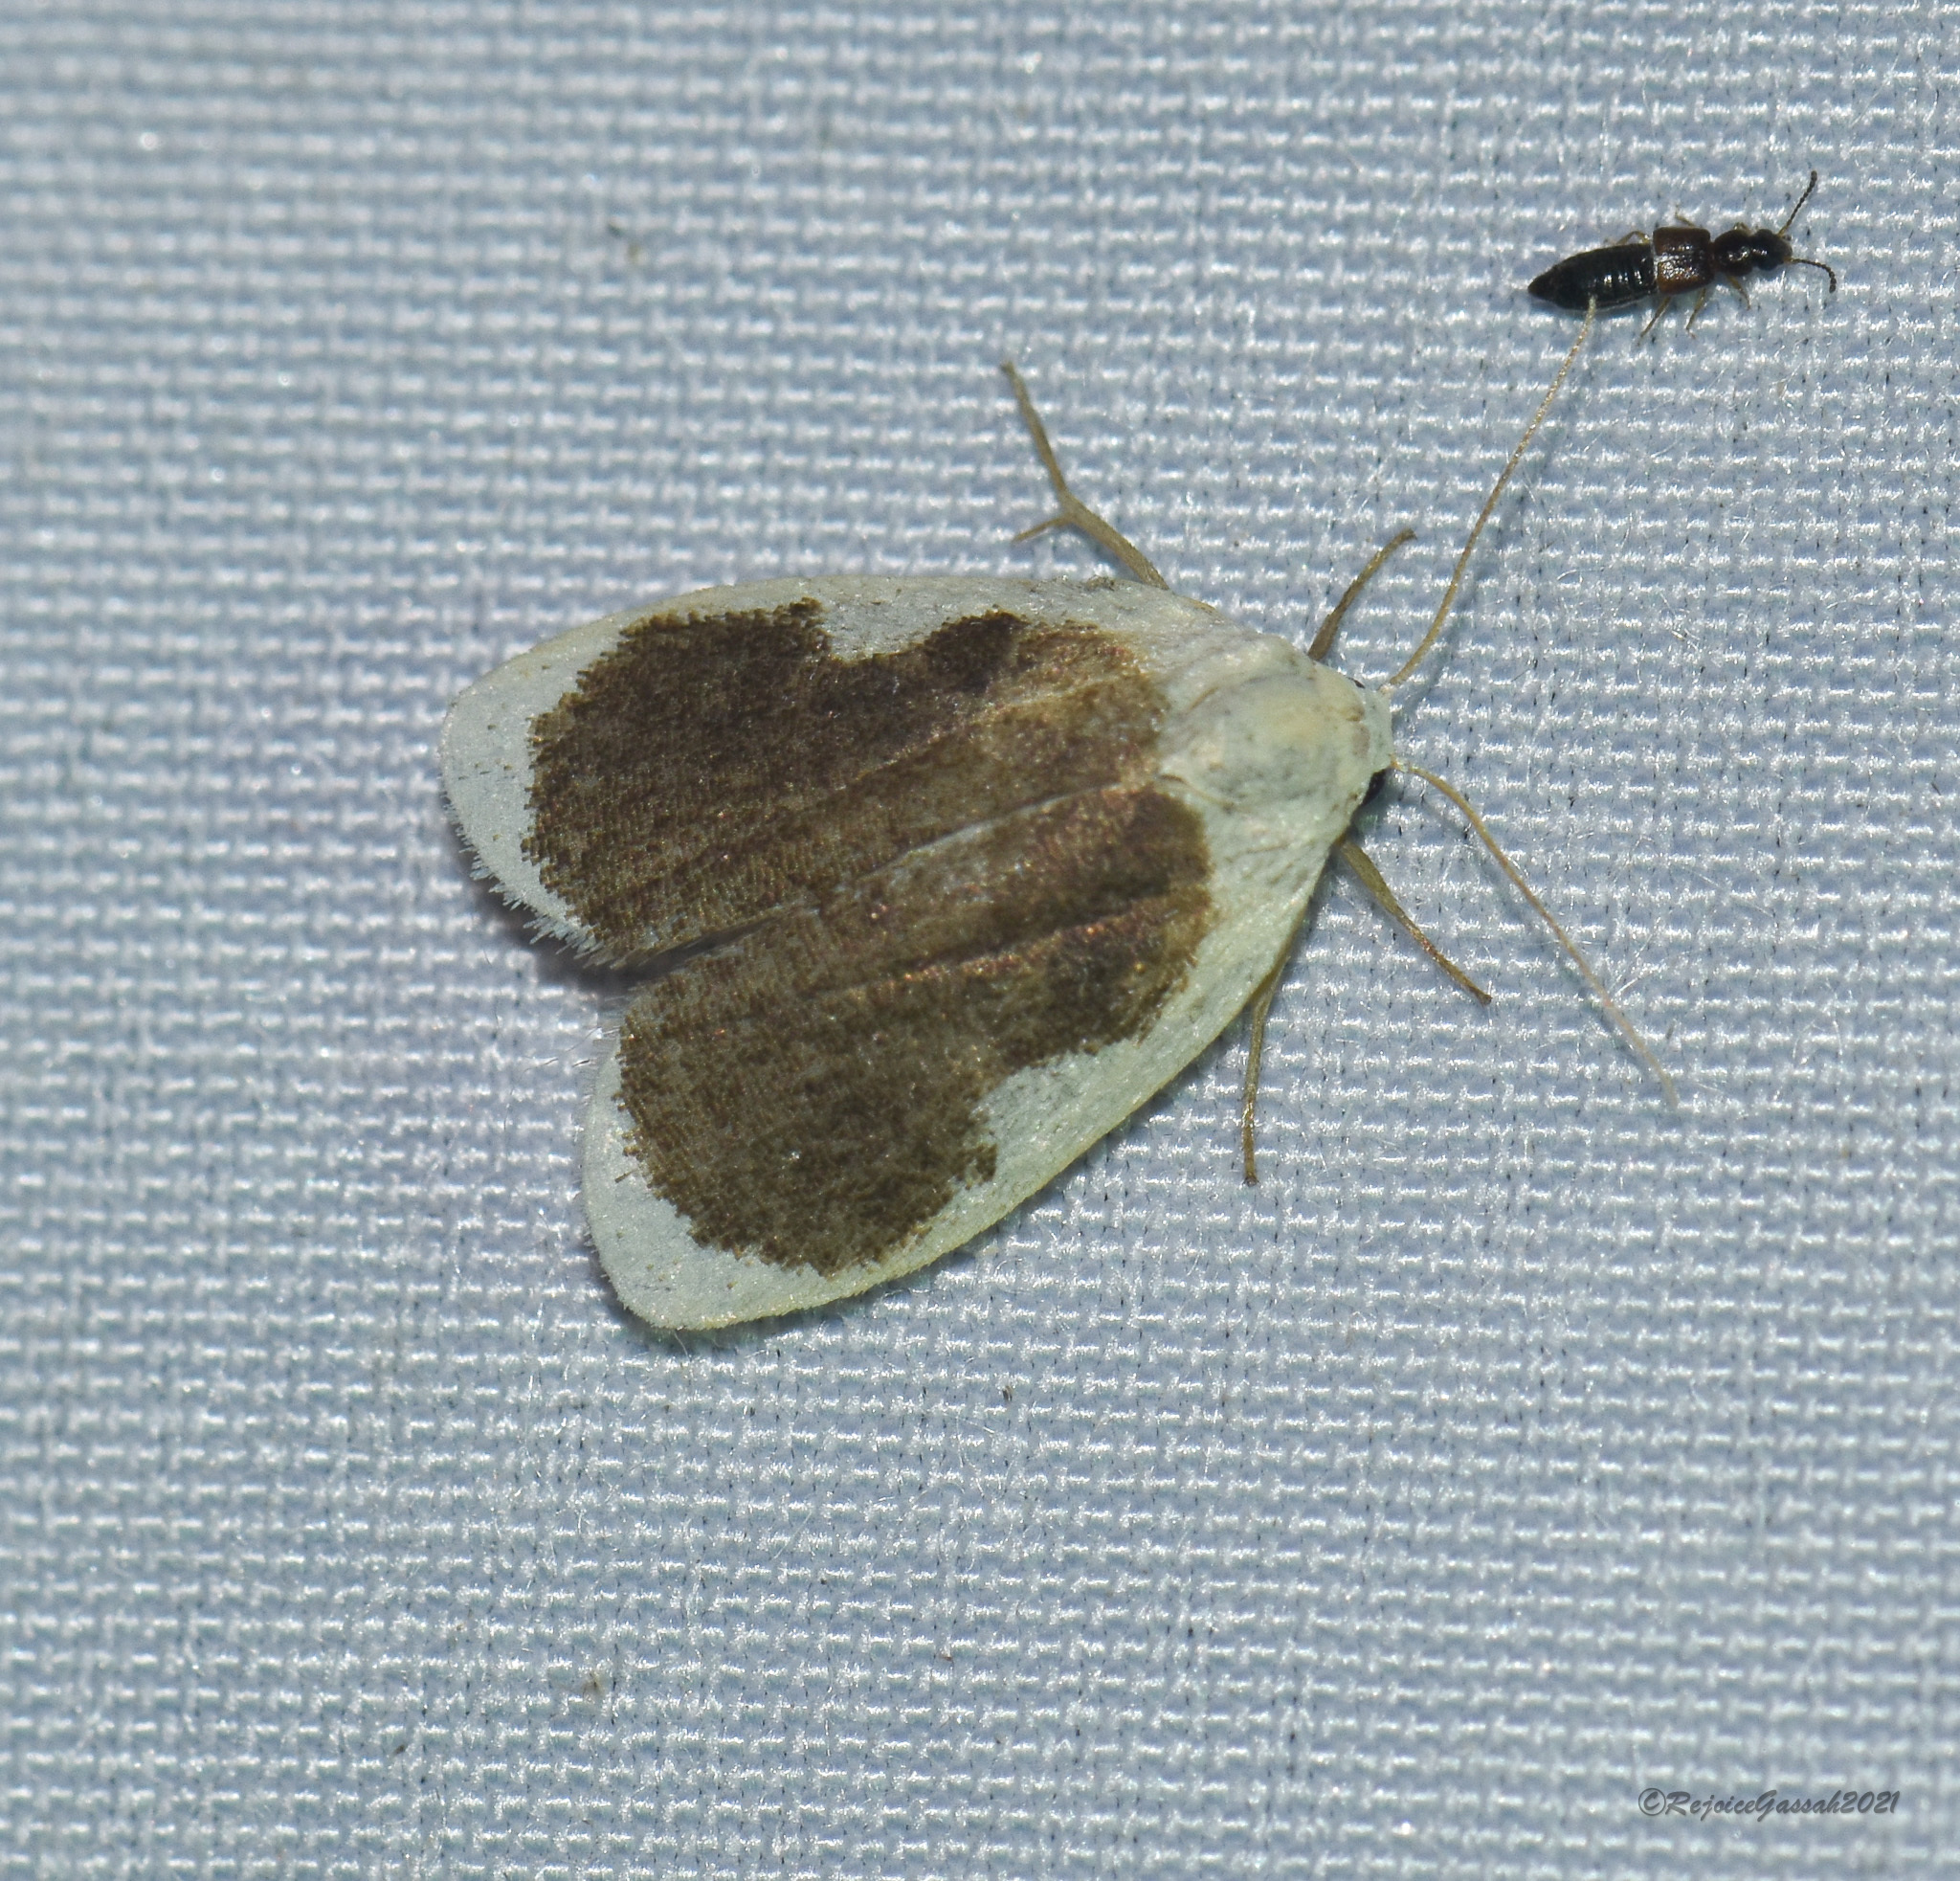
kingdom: Animalia
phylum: Arthropoda
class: Insecta
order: Lepidoptera
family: Erebidae
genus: Pseudoblabes
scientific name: Pseudoblabes oophora
